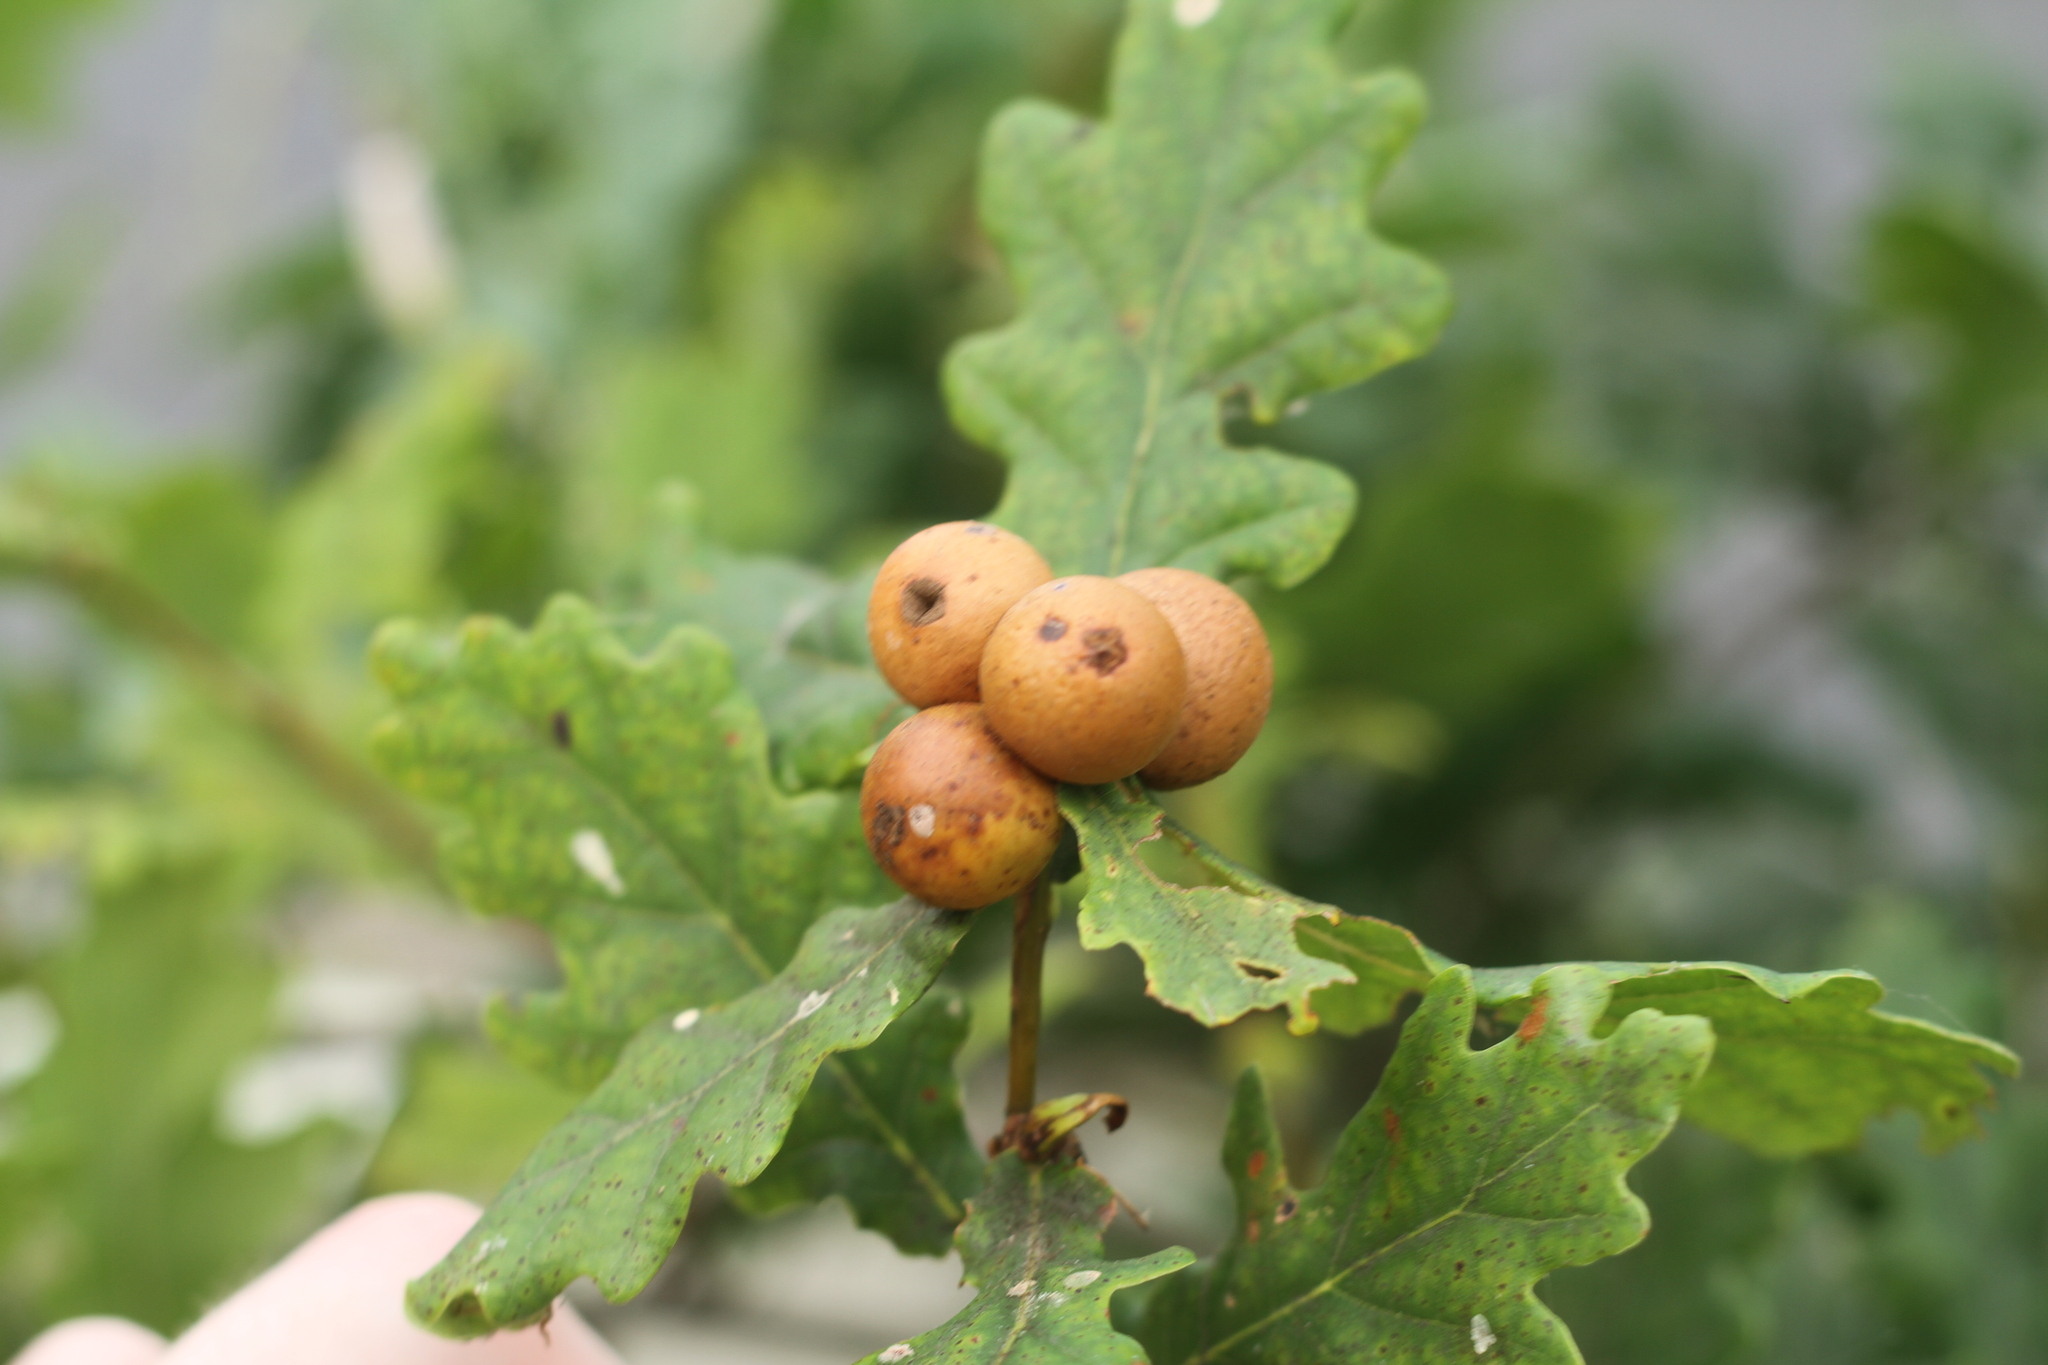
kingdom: Animalia
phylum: Arthropoda
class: Insecta
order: Hymenoptera
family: Cynipidae
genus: Andricus
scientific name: Andricus kollari
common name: Marble gall
